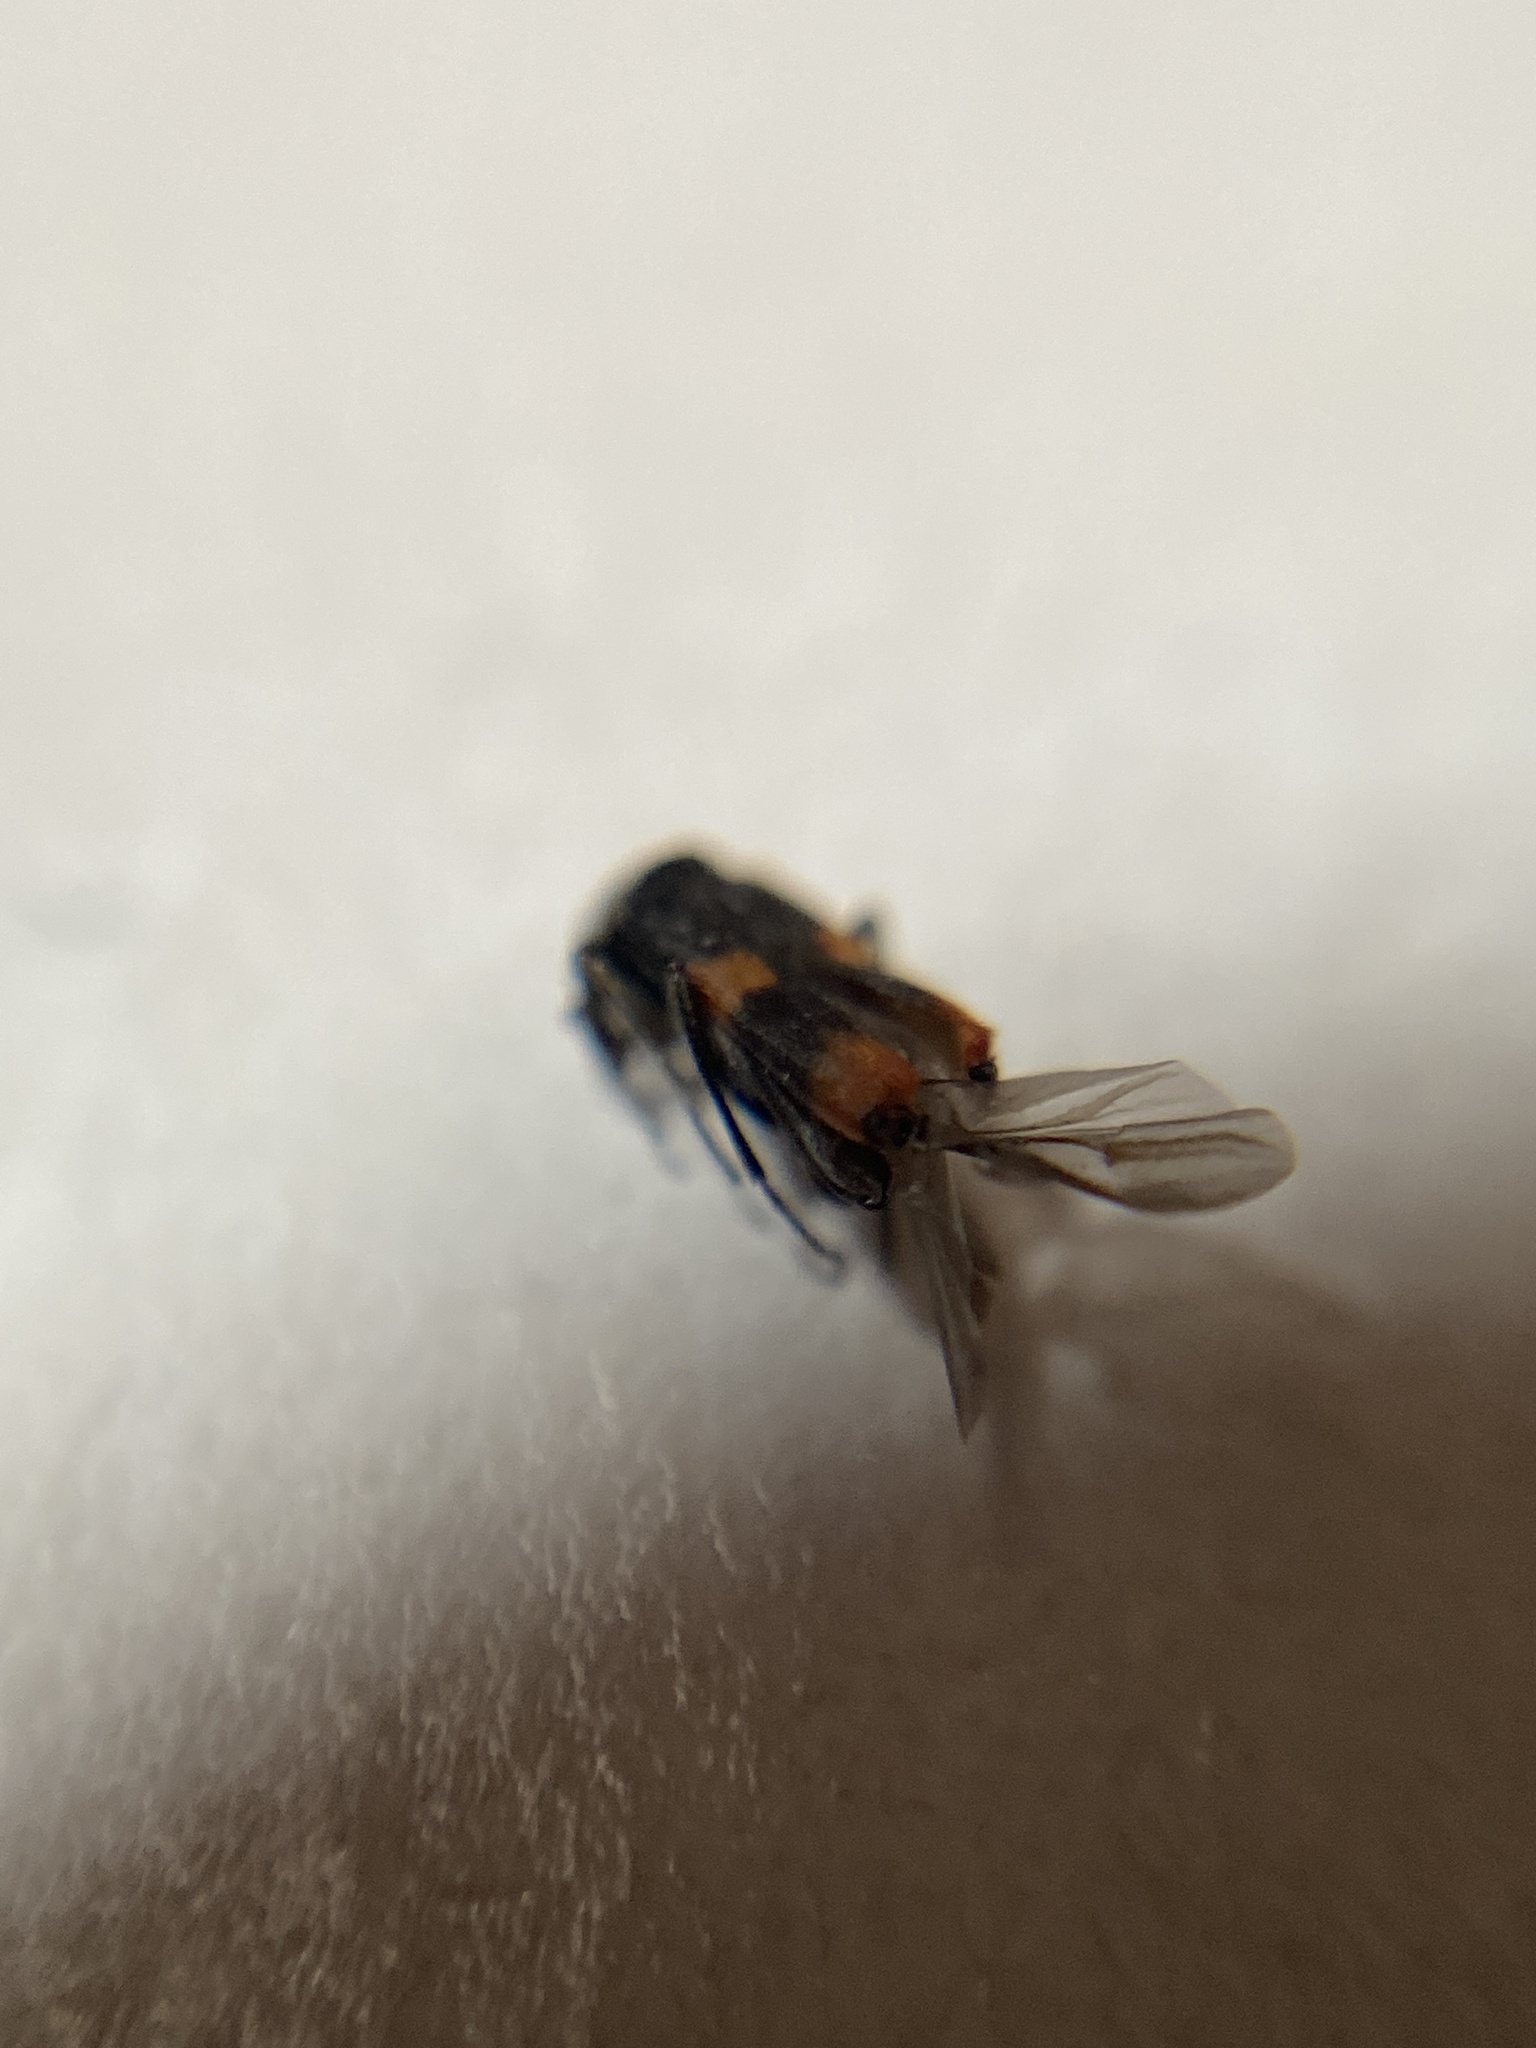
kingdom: Animalia
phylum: Arthropoda
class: Insecta
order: Coleoptera
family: Melyridae
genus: Anthocomus
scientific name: Anthocomus fasciatus
